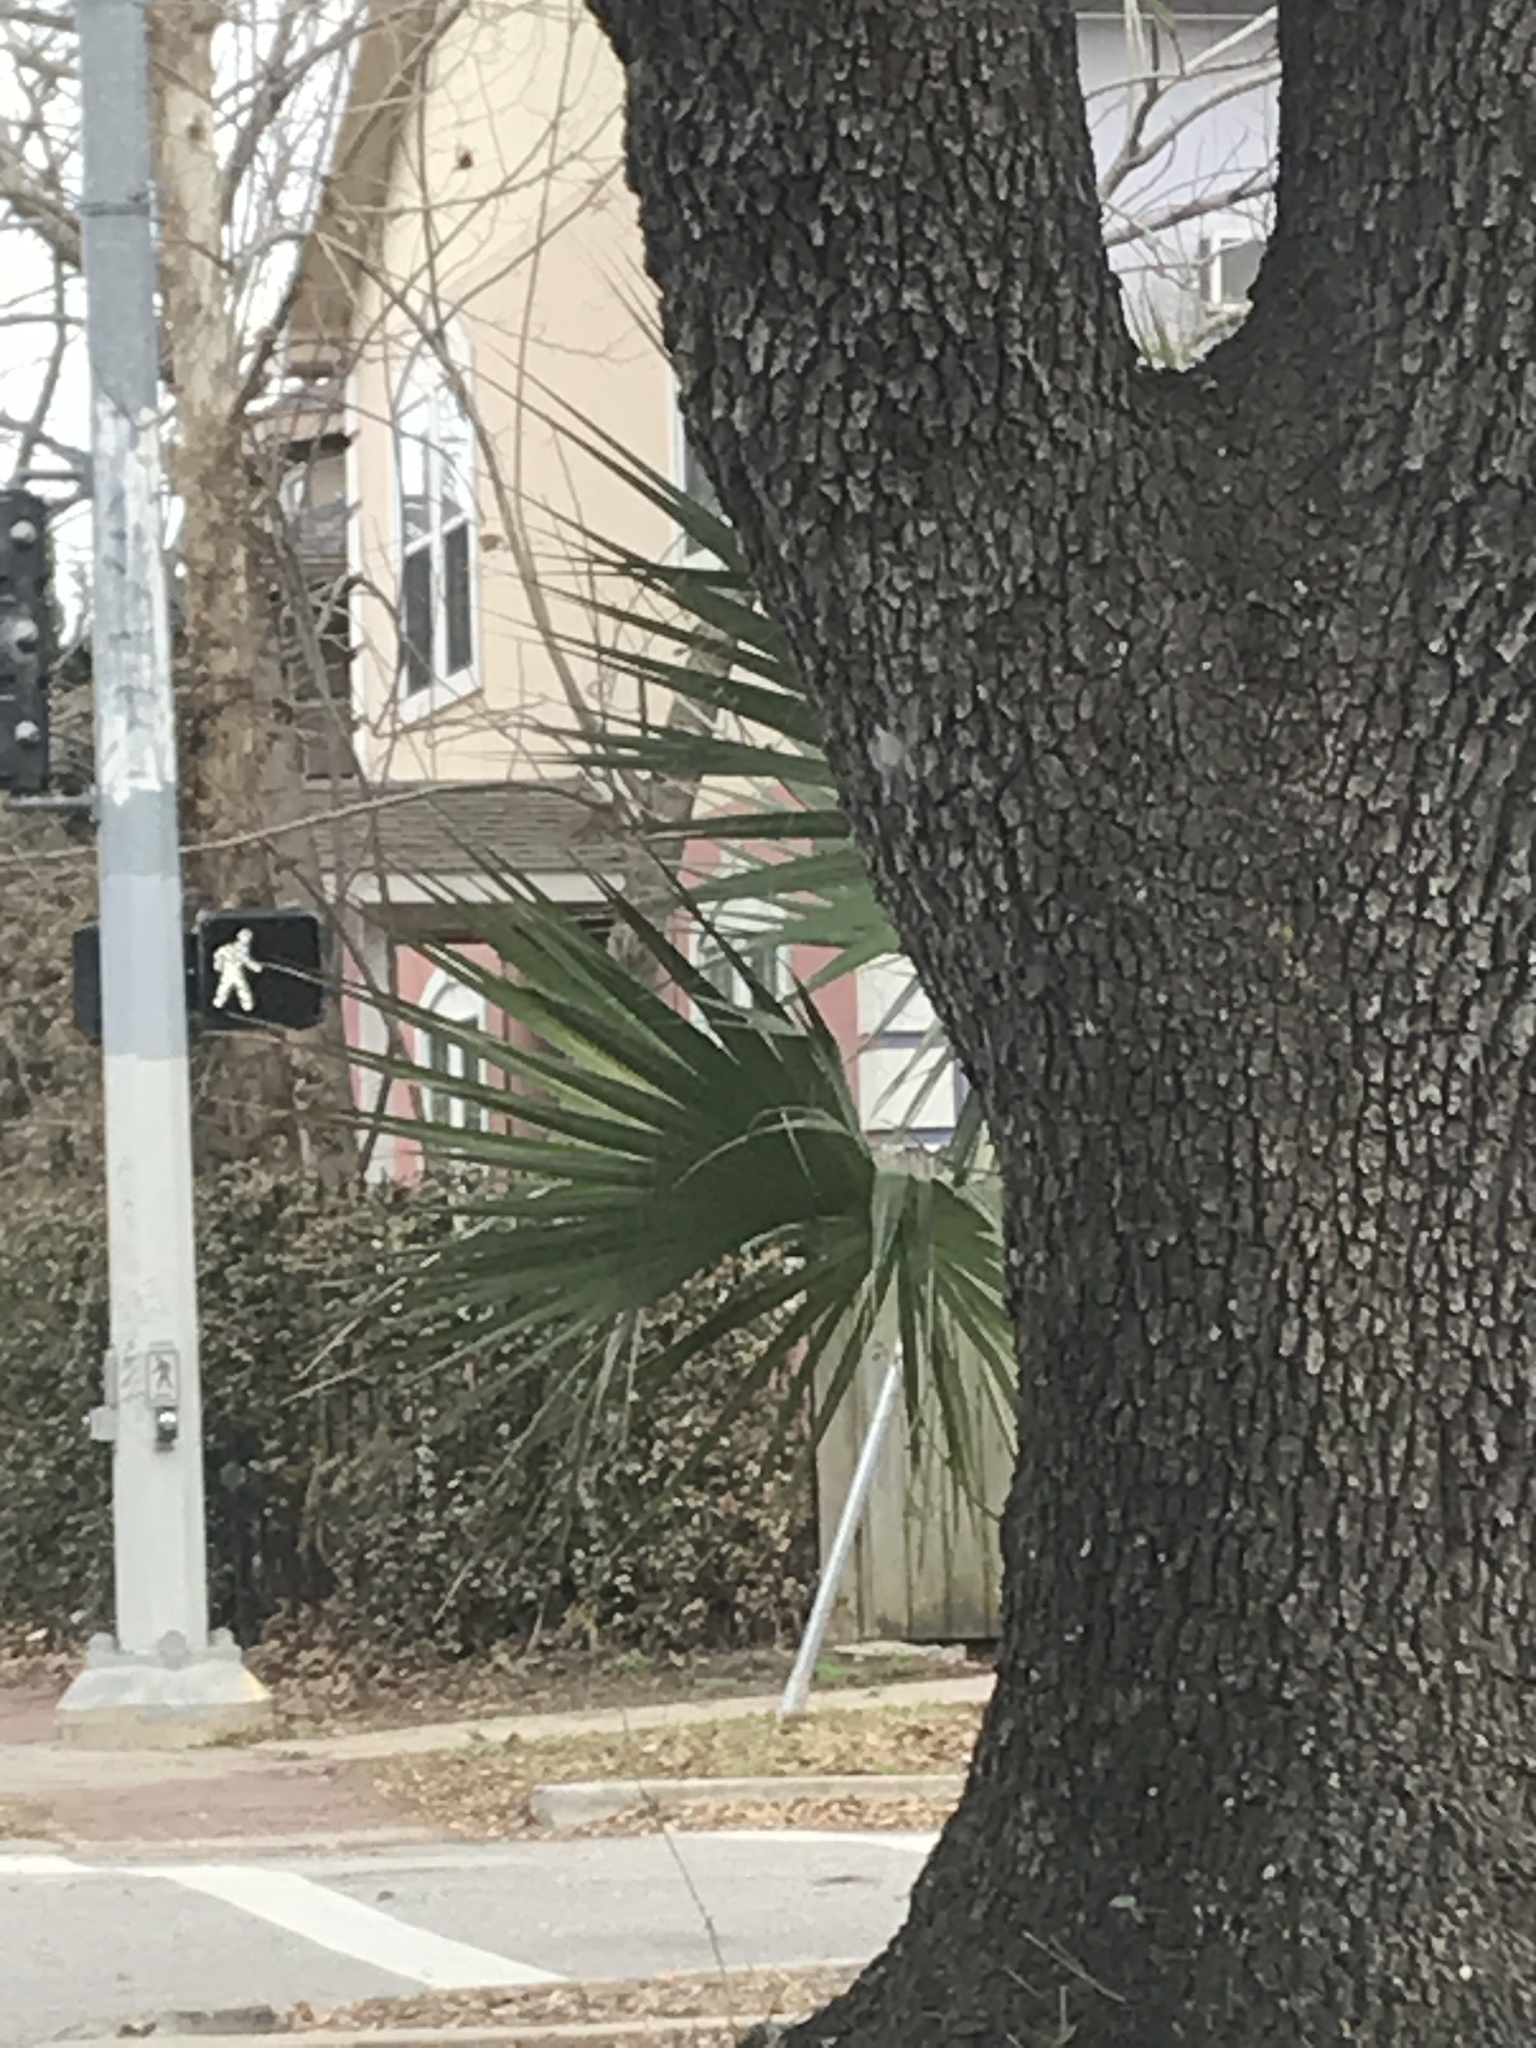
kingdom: Plantae
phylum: Tracheophyta
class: Liliopsida
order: Arecales
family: Arecaceae
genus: Sabal
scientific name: Sabal minor
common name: Dwarf palmetto
